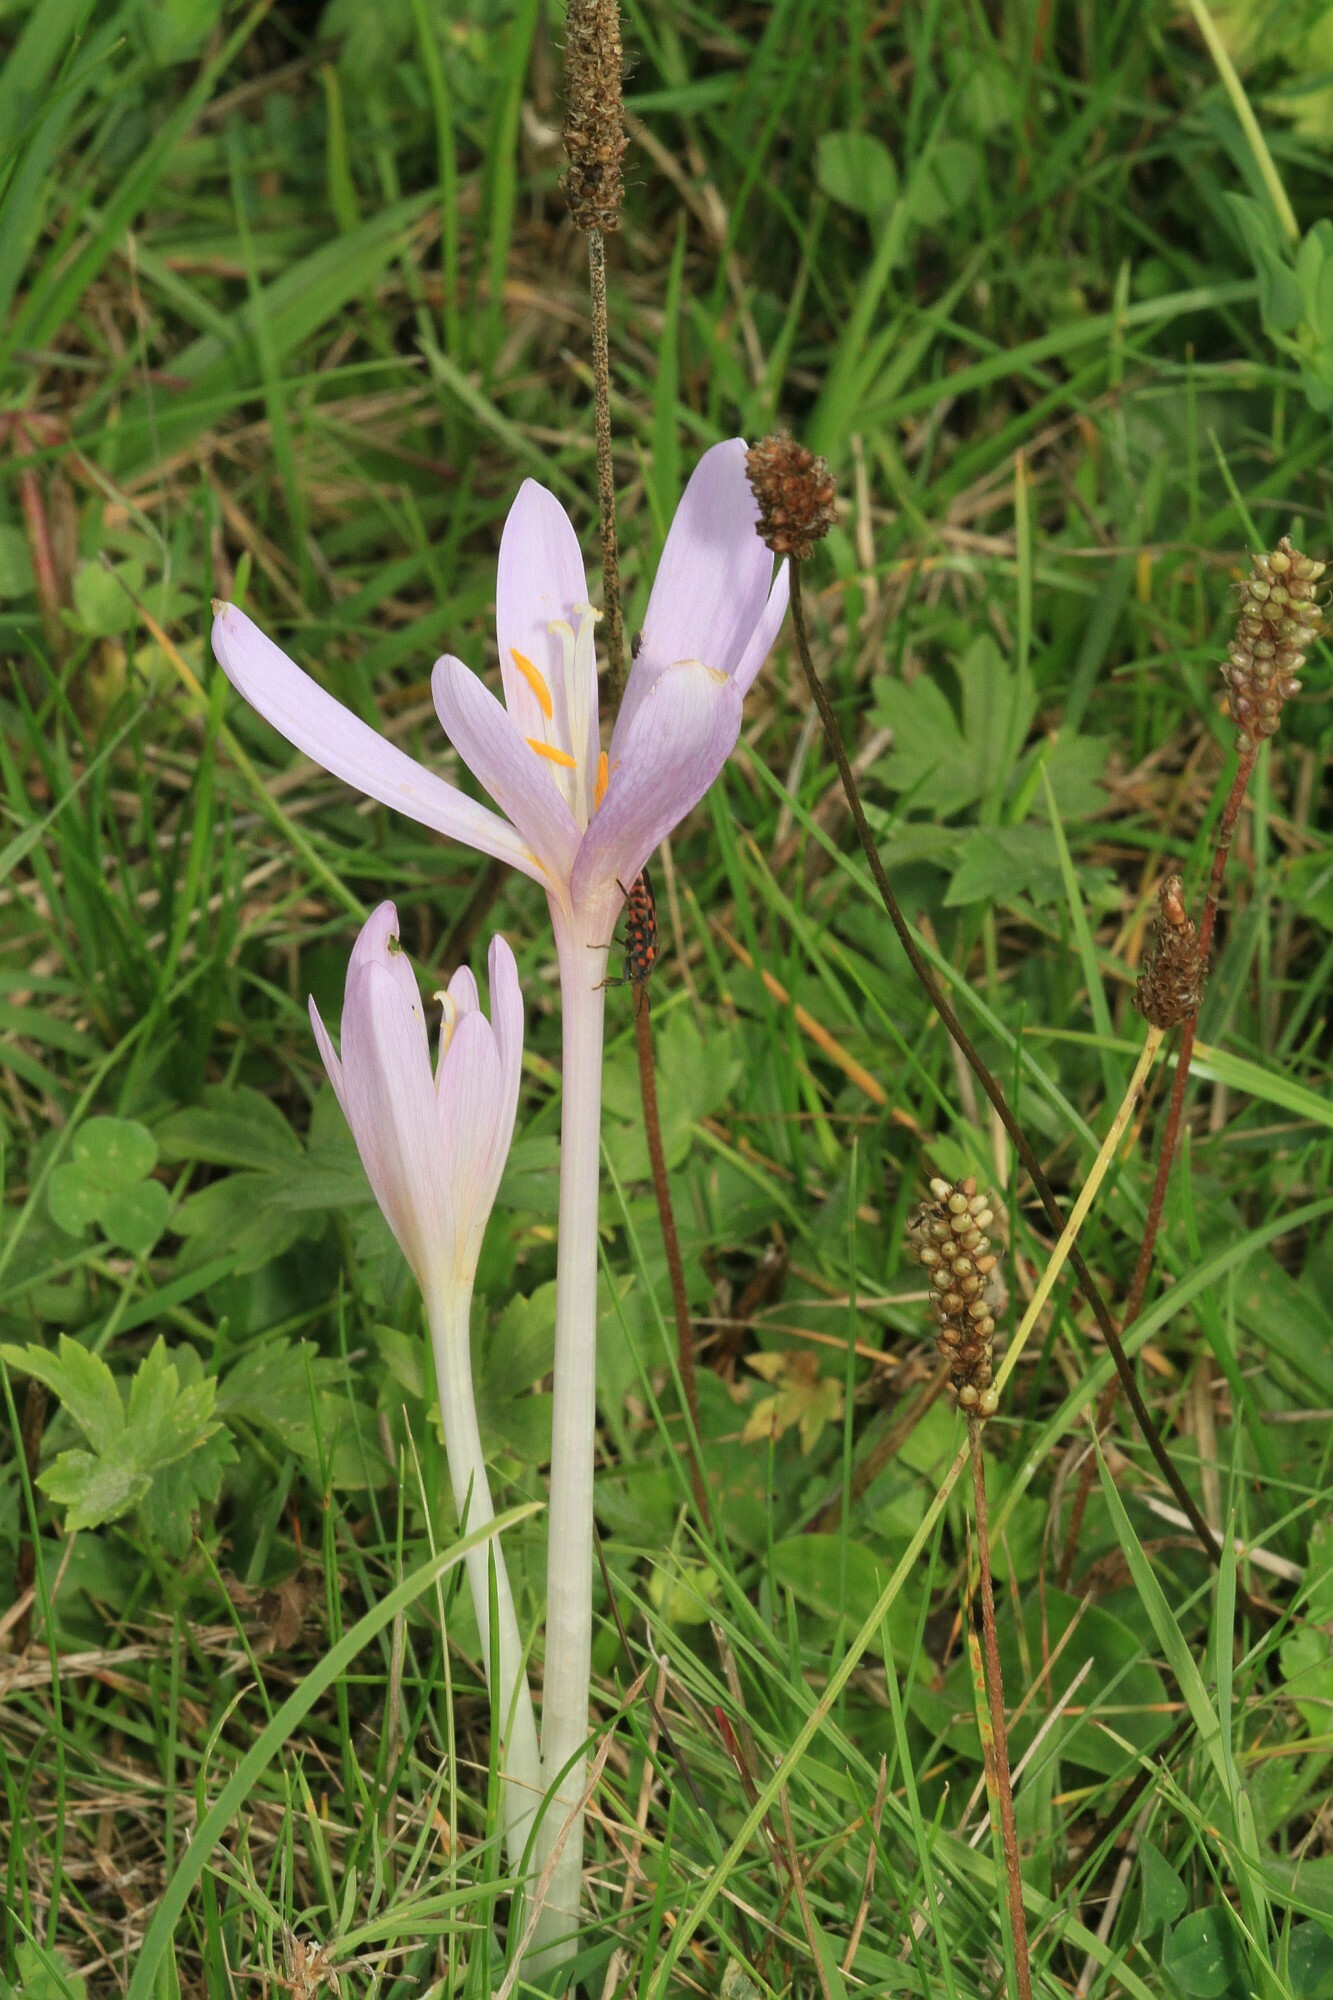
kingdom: Plantae
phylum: Tracheophyta
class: Liliopsida
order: Liliales
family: Colchicaceae
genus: Colchicum
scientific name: Colchicum autumnale
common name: Autumn crocus
